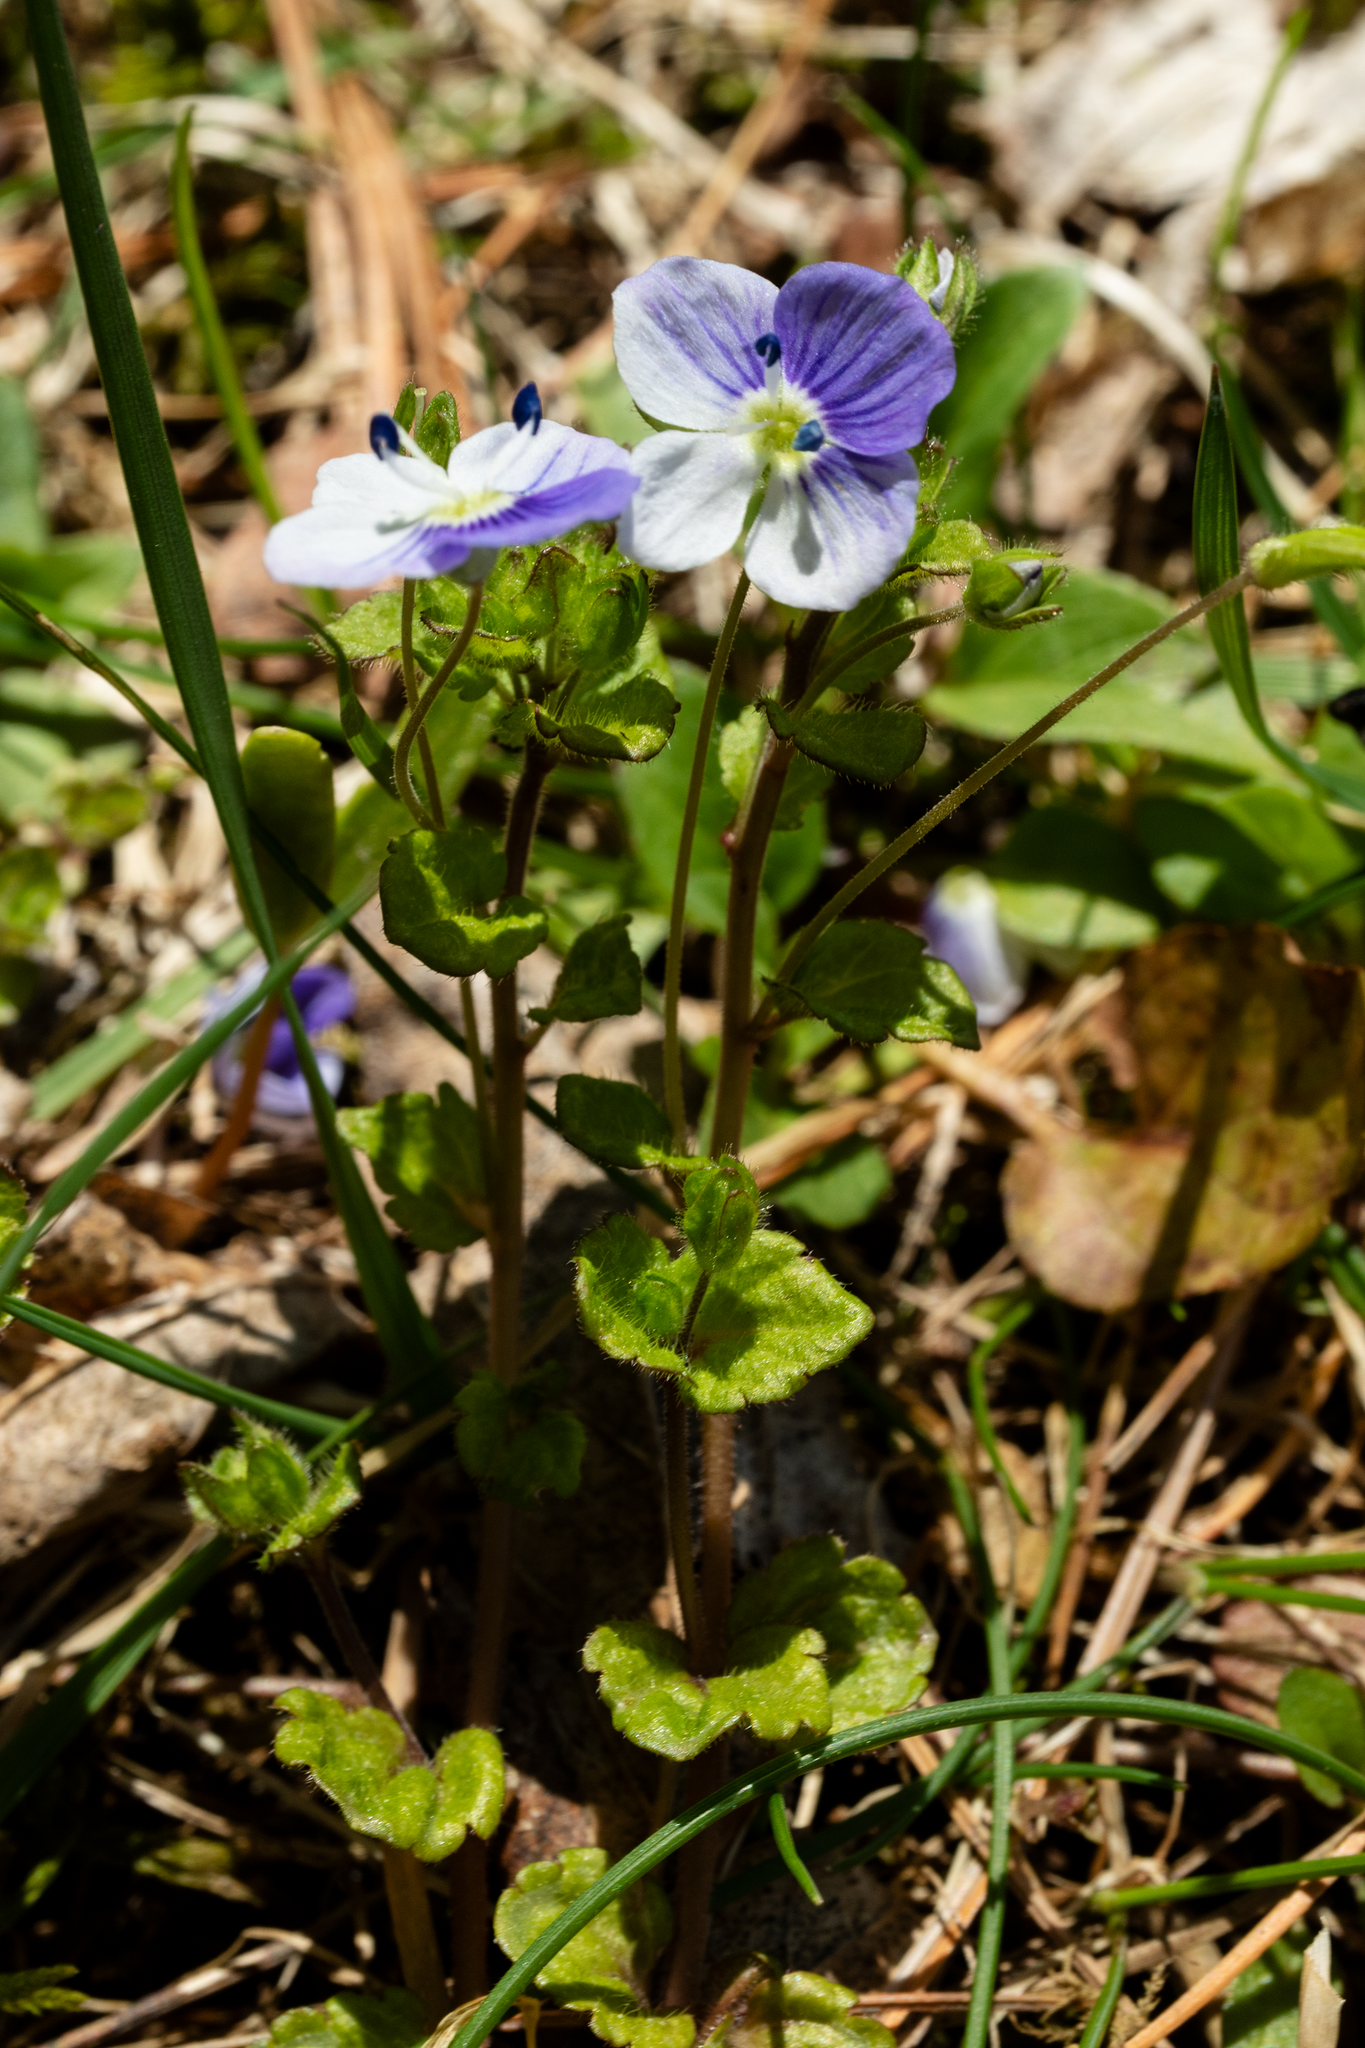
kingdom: Plantae
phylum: Tracheophyta
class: Magnoliopsida
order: Lamiales
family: Plantaginaceae
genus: Veronica
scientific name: Veronica filiformis
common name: Slender speedwell
